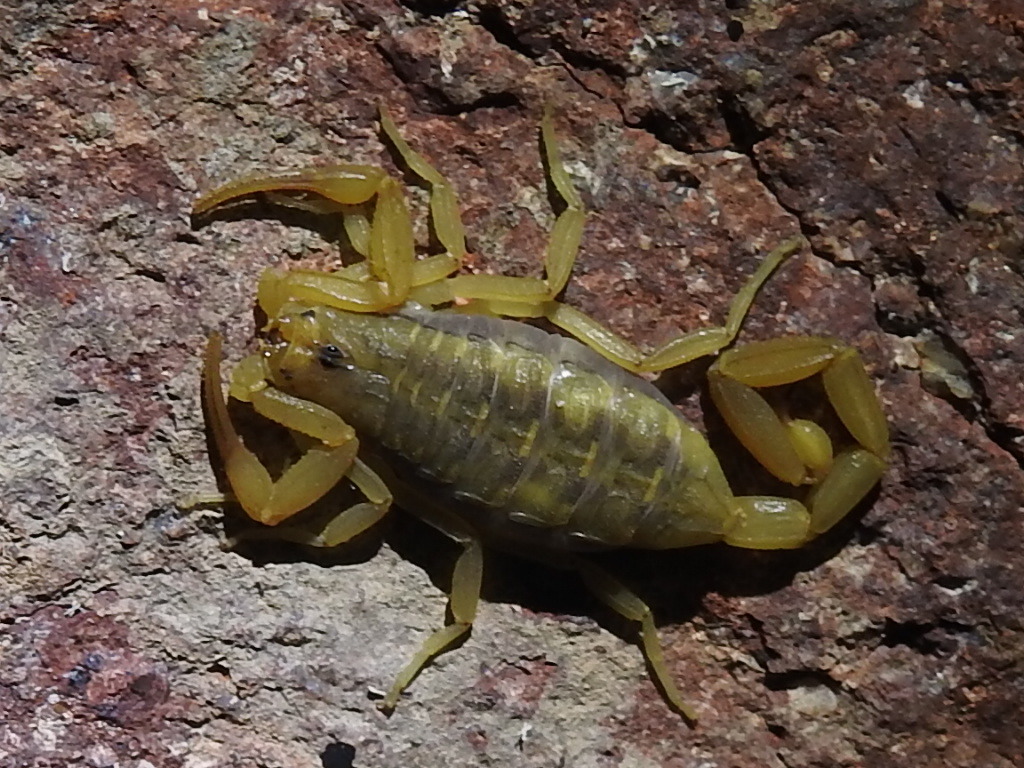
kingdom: Animalia
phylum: Arthropoda
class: Arachnida
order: Scorpiones
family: Buthidae
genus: Centruroides
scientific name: Centruroides sculpturatus
